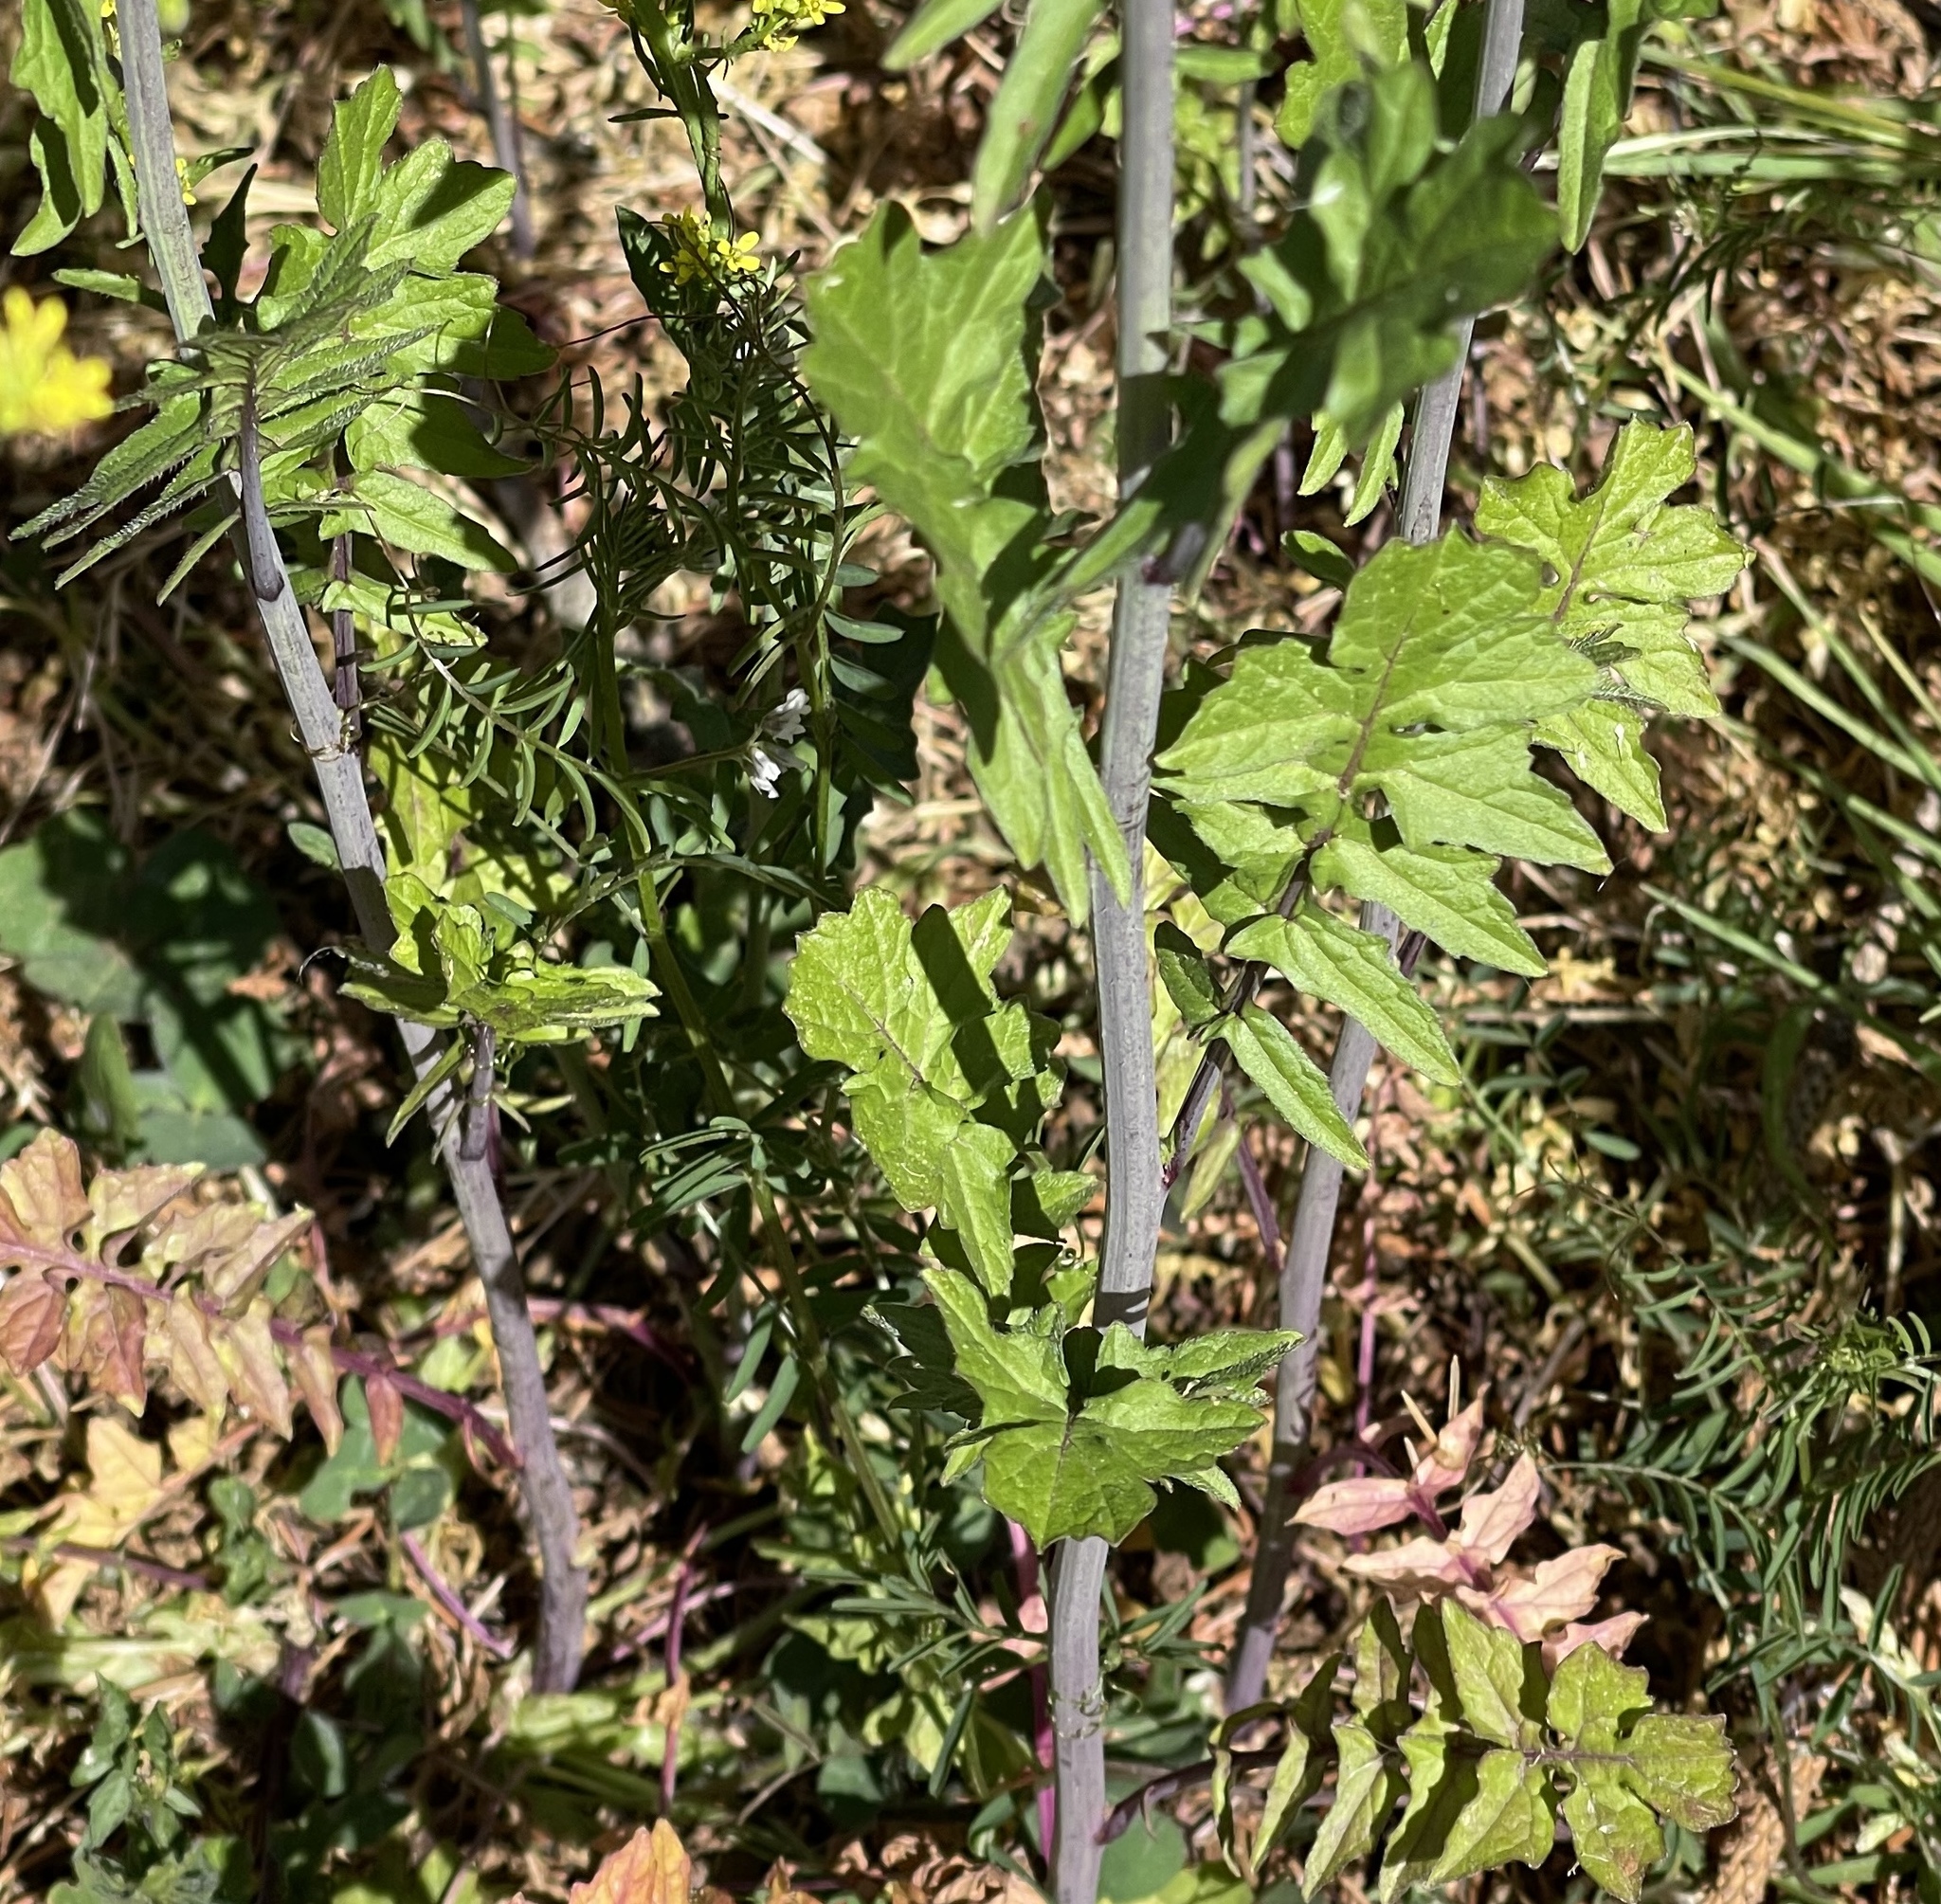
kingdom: Plantae
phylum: Tracheophyta
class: Magnoliopsida
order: Brassicales
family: Brassicaceae
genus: Sisymbrium
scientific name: Sisymbrium officinale
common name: Hedge mustard
